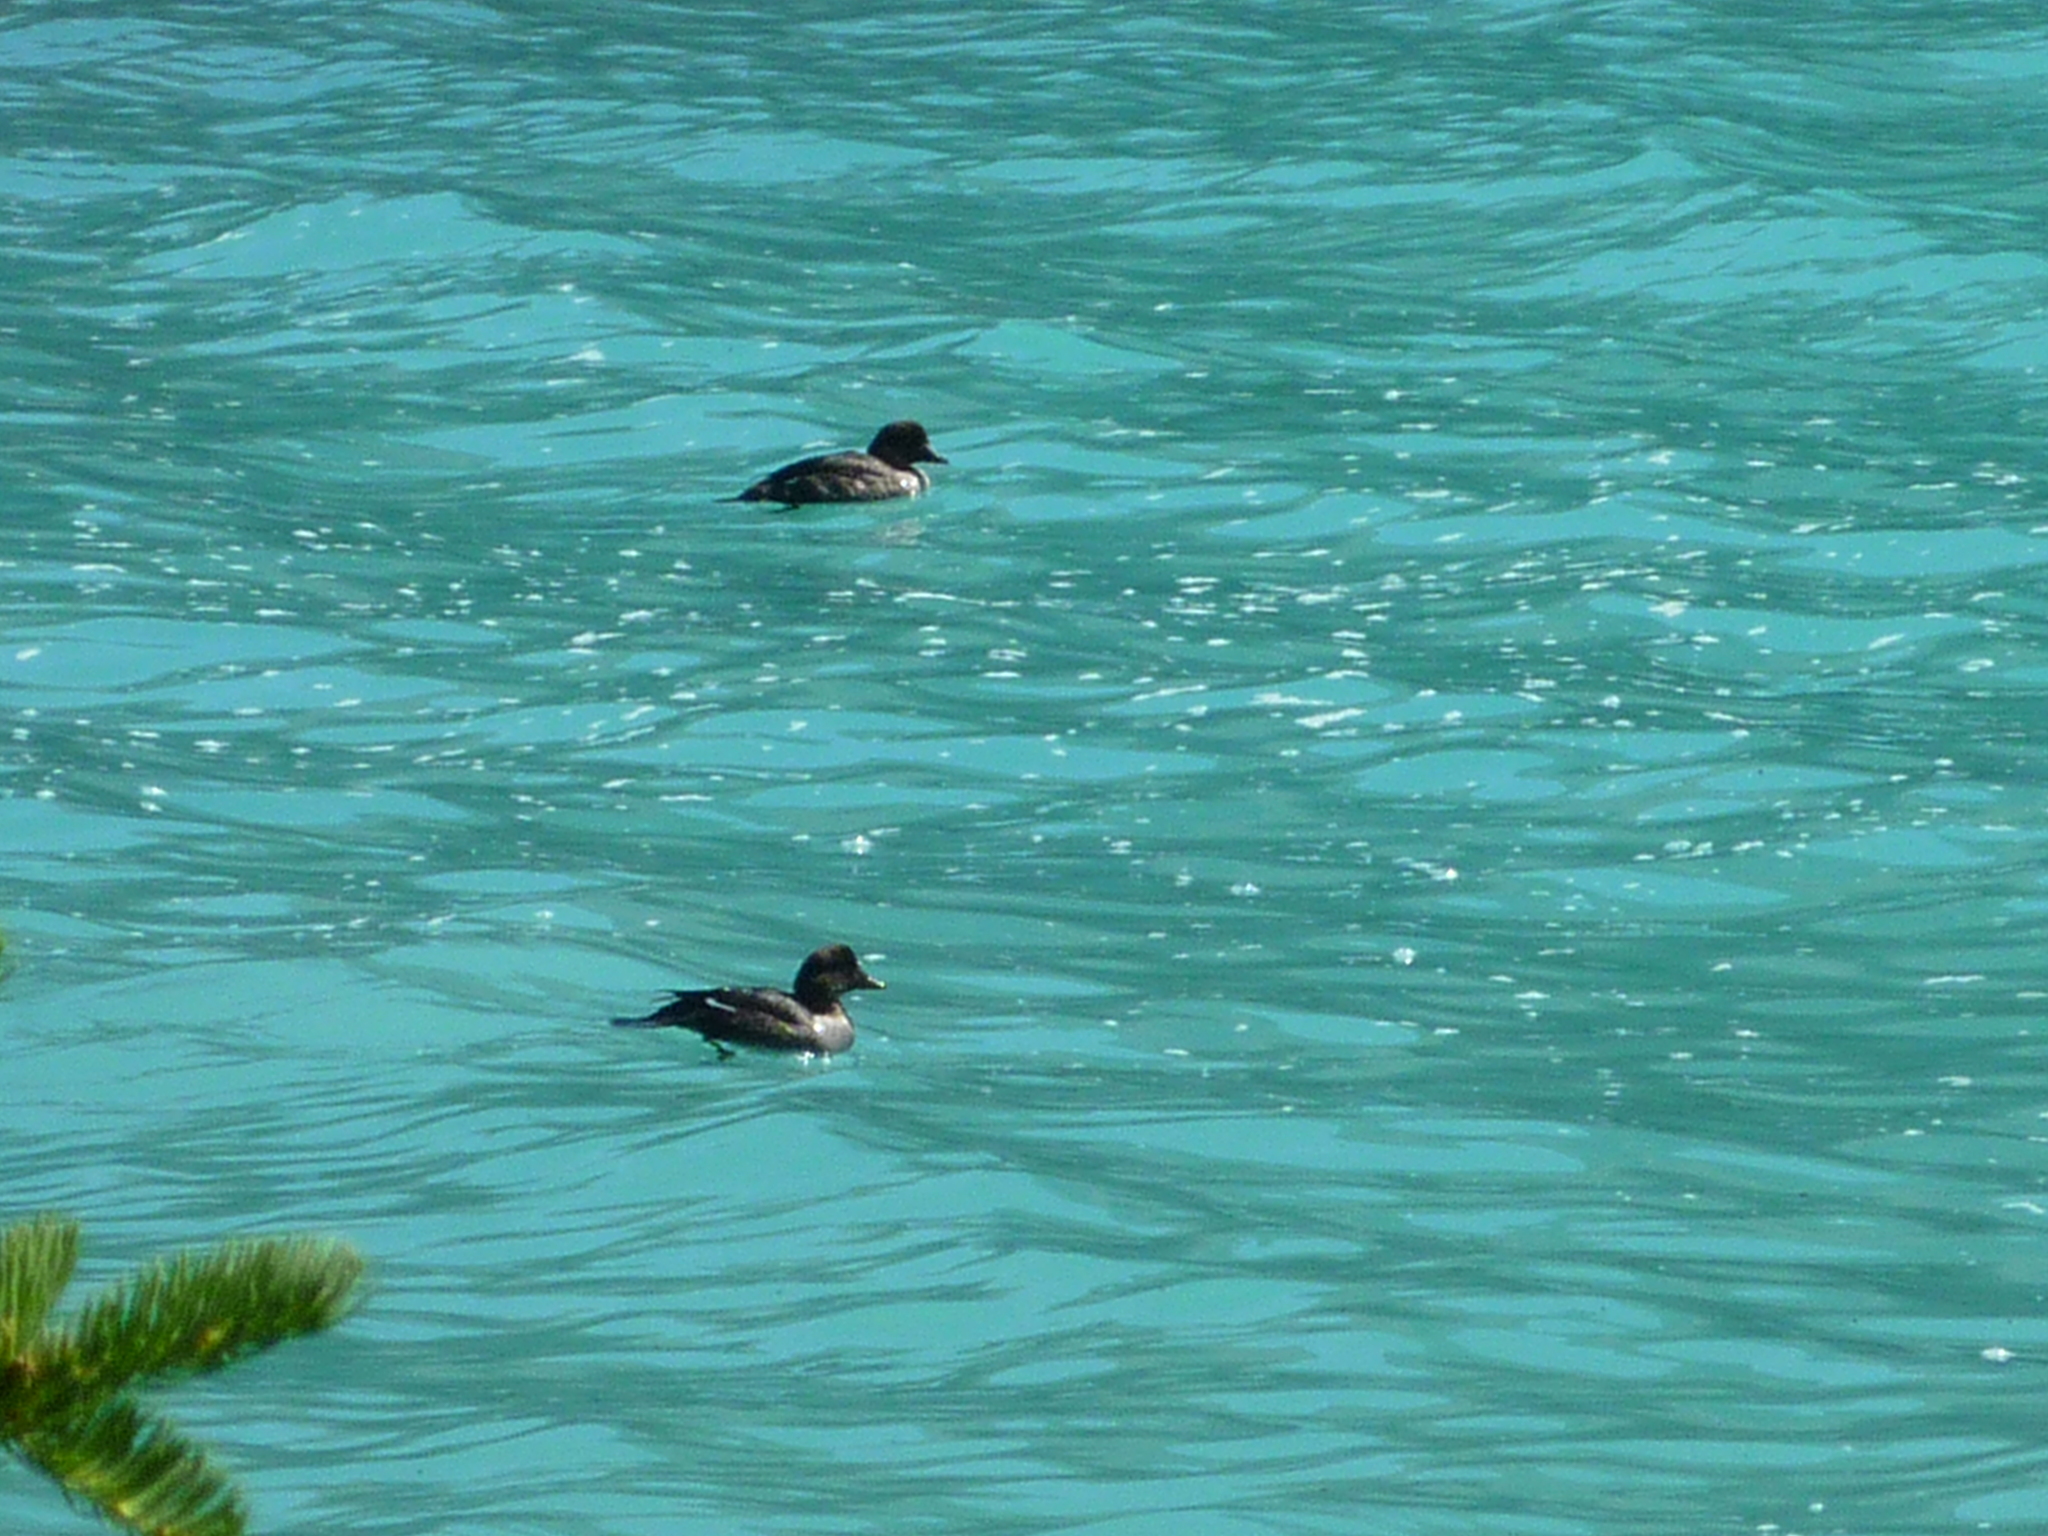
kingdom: Animalia
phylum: Chordata
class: Aves
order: Anseriformes
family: Anatidae
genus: Bucephala
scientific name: Bucephala islandica
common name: Barrow's goldeneye
